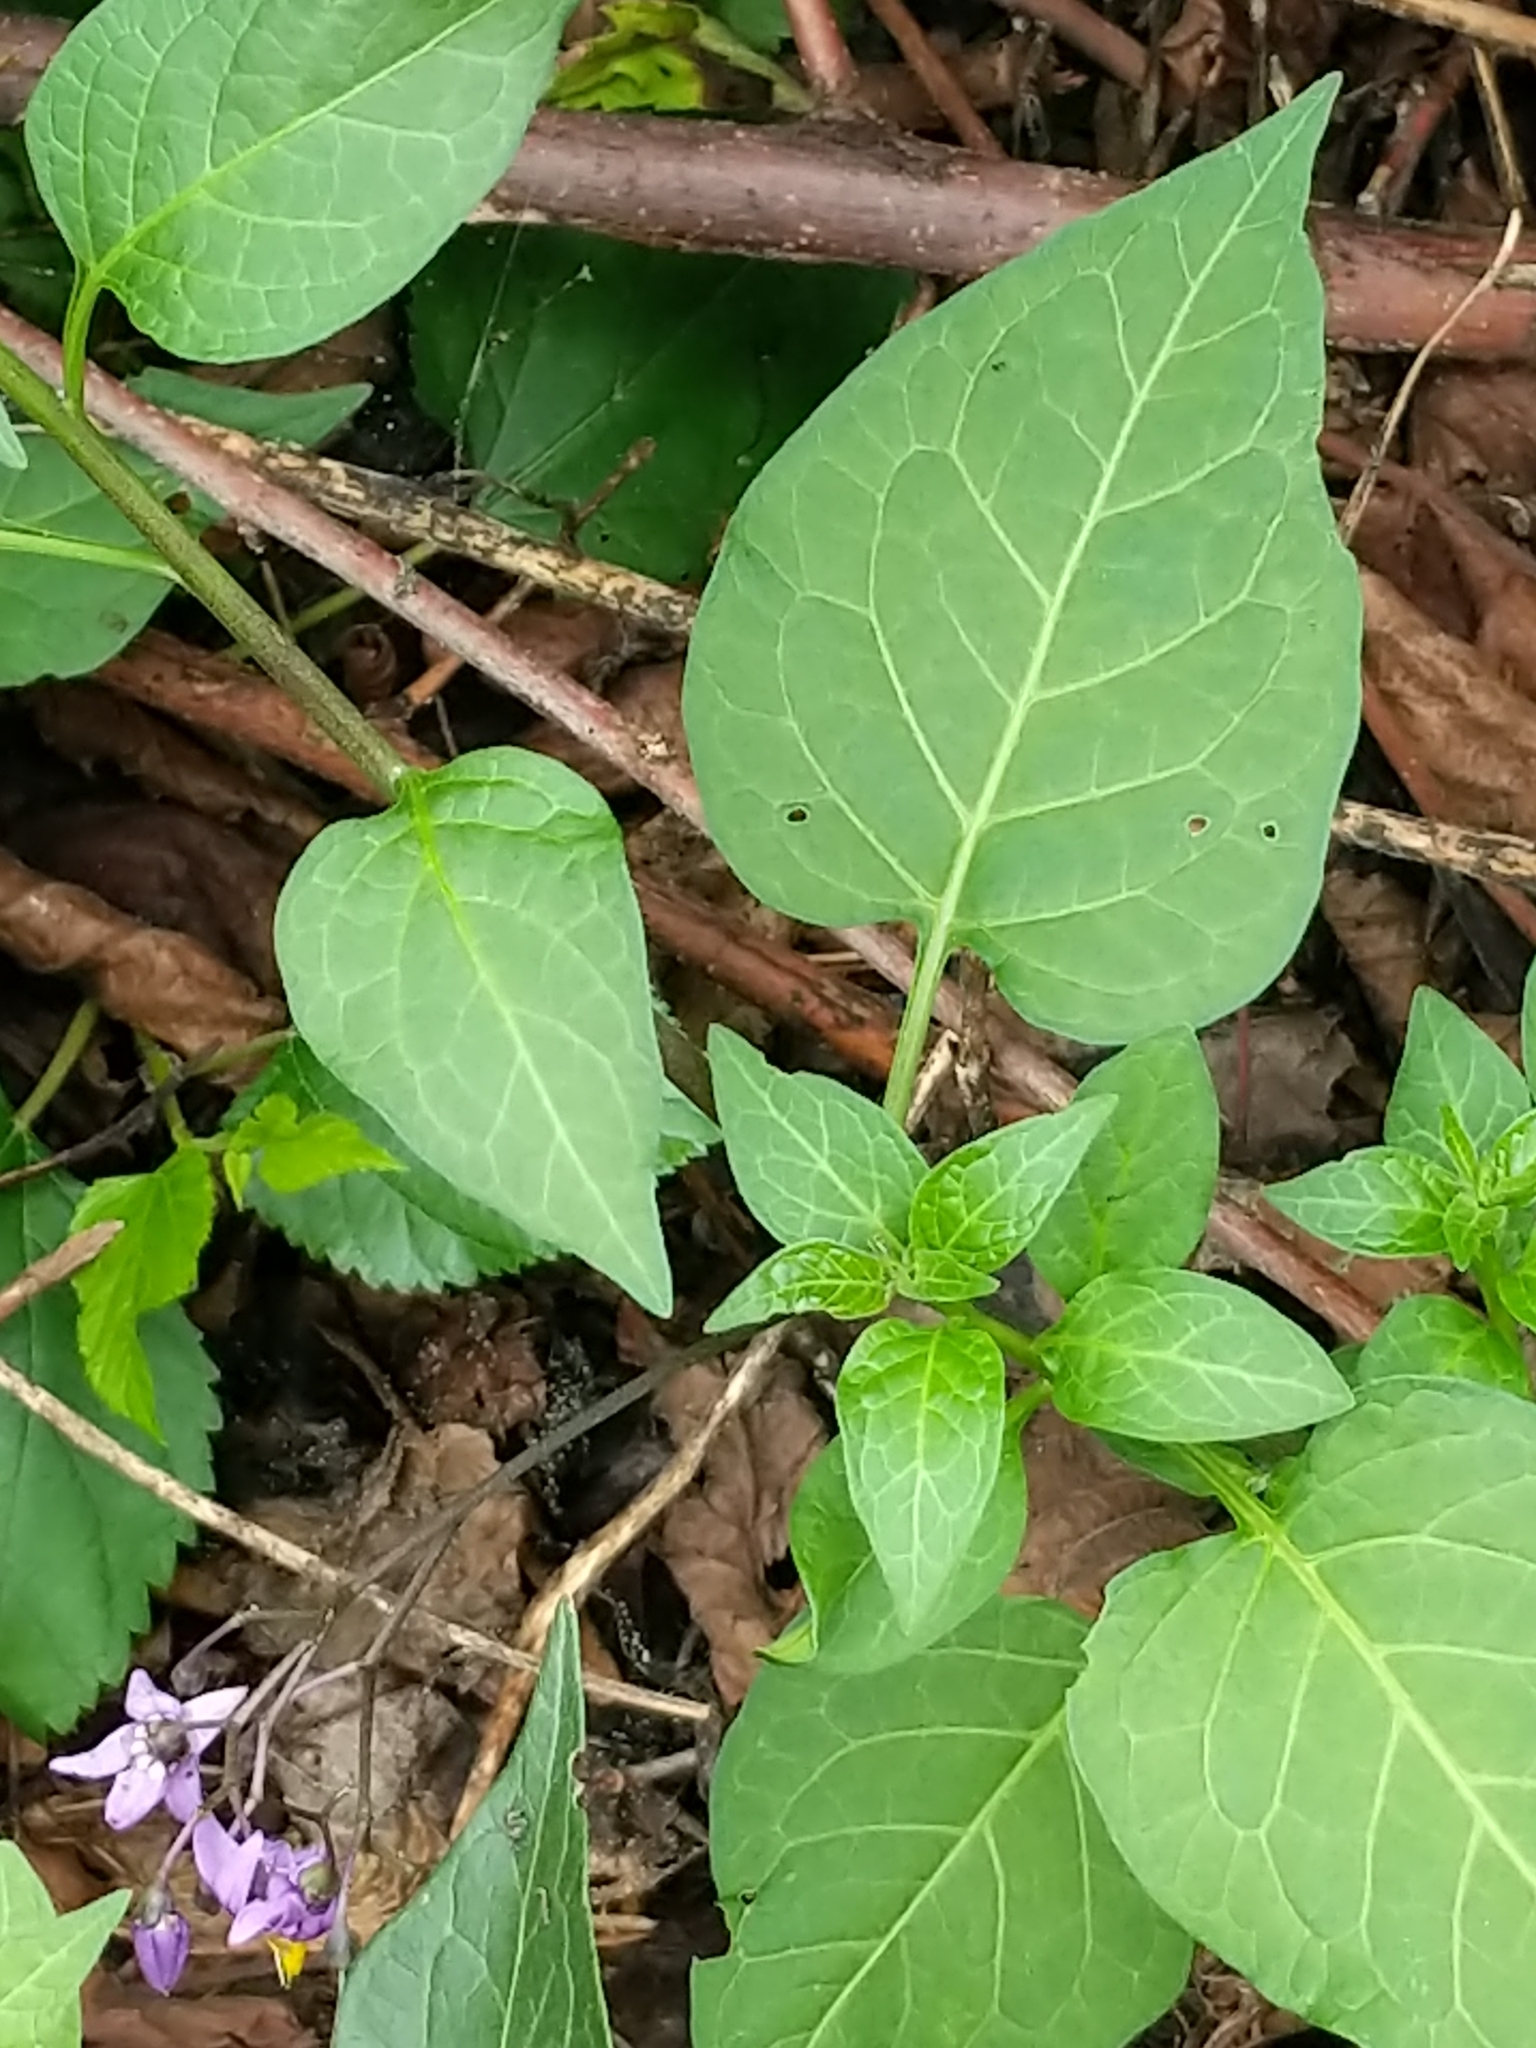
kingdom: Plantae
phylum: Tracheophyta
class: Magnoliopsida
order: Solanales
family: Solanaceae
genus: Solanum
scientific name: Solanum dulcamara
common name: Climbing nightshade
